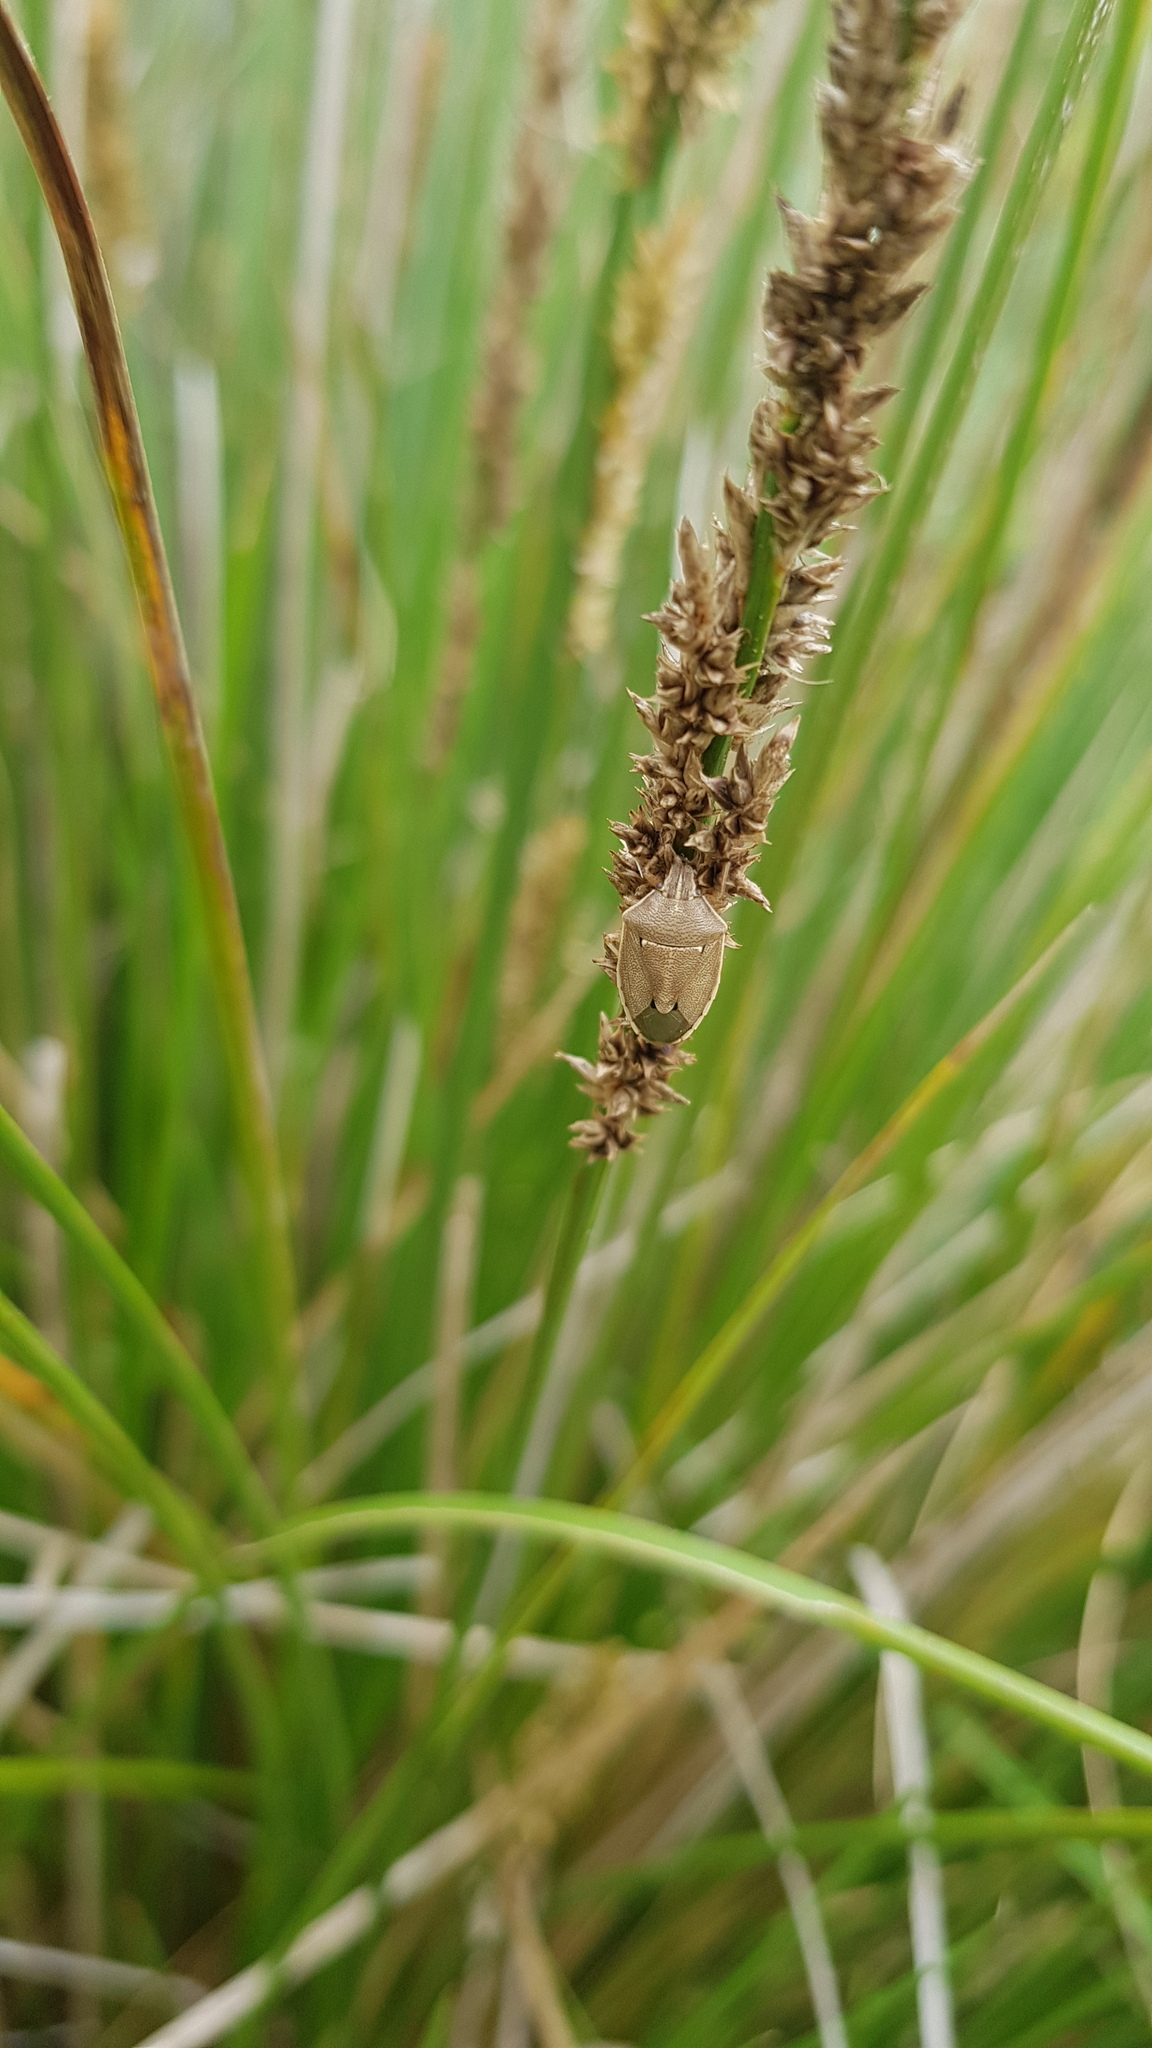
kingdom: Animalia
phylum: Arthropoda
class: Insecta
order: Hemiptera
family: Pentatomidae
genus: Mycoolona
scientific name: Mycoolona
